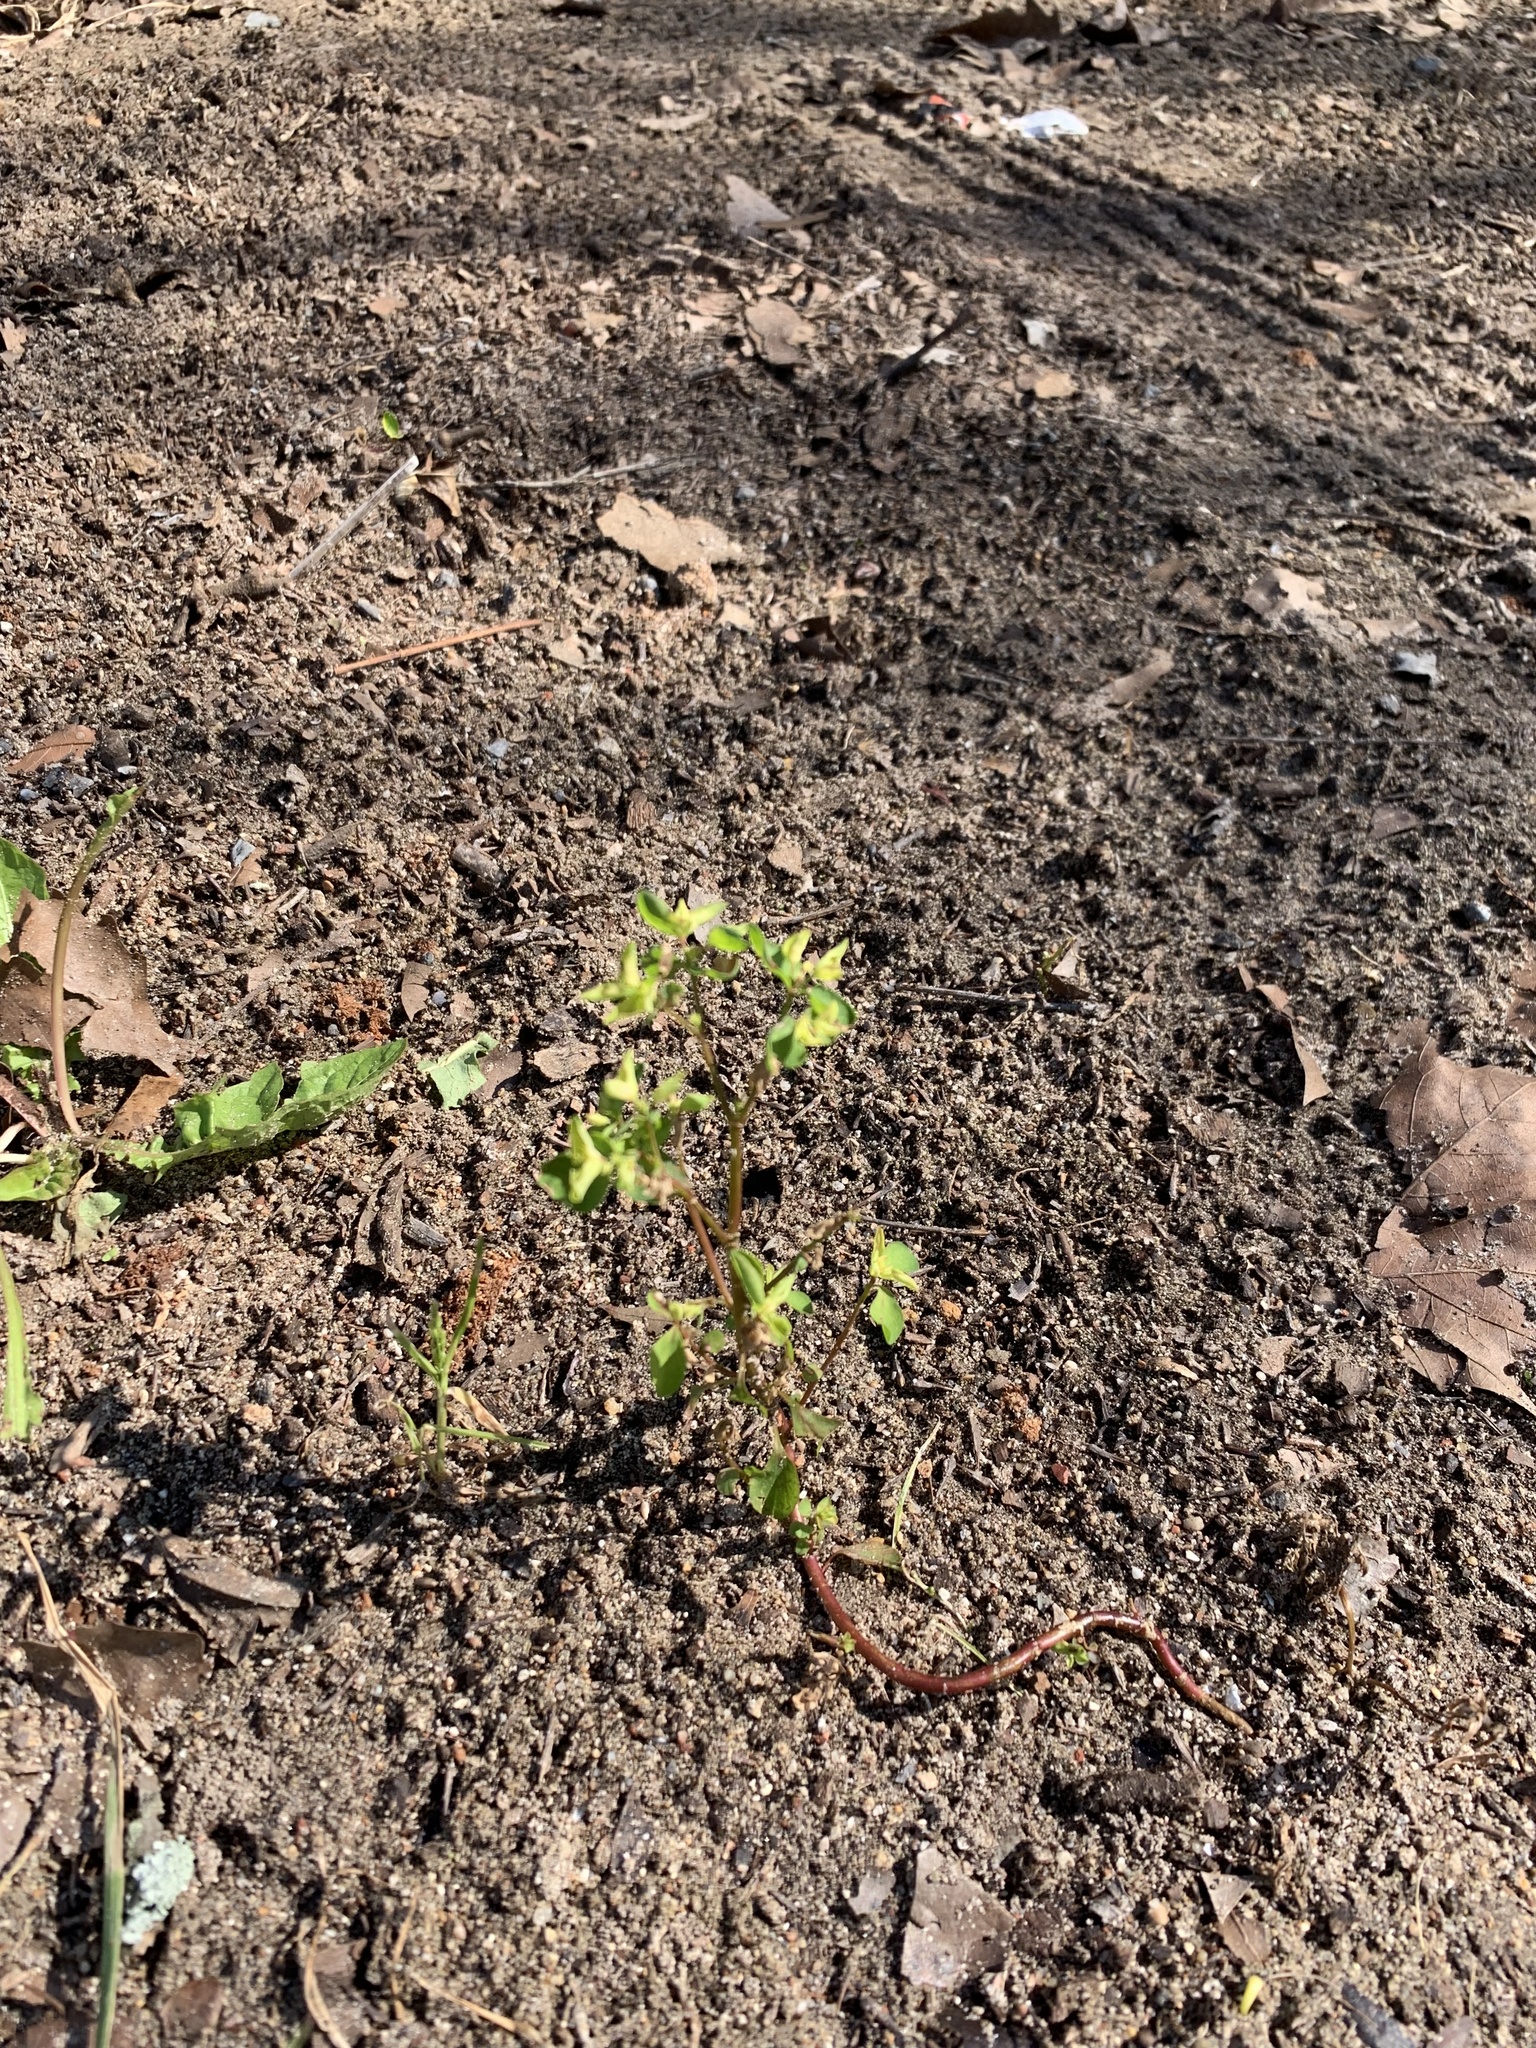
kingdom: Plantae
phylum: Tracheophyta
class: Magnoliopsida
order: Malpighiales
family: Euphorbiaceae
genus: Euphorbia
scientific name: Euphorbia peplus
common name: Petty spurge
